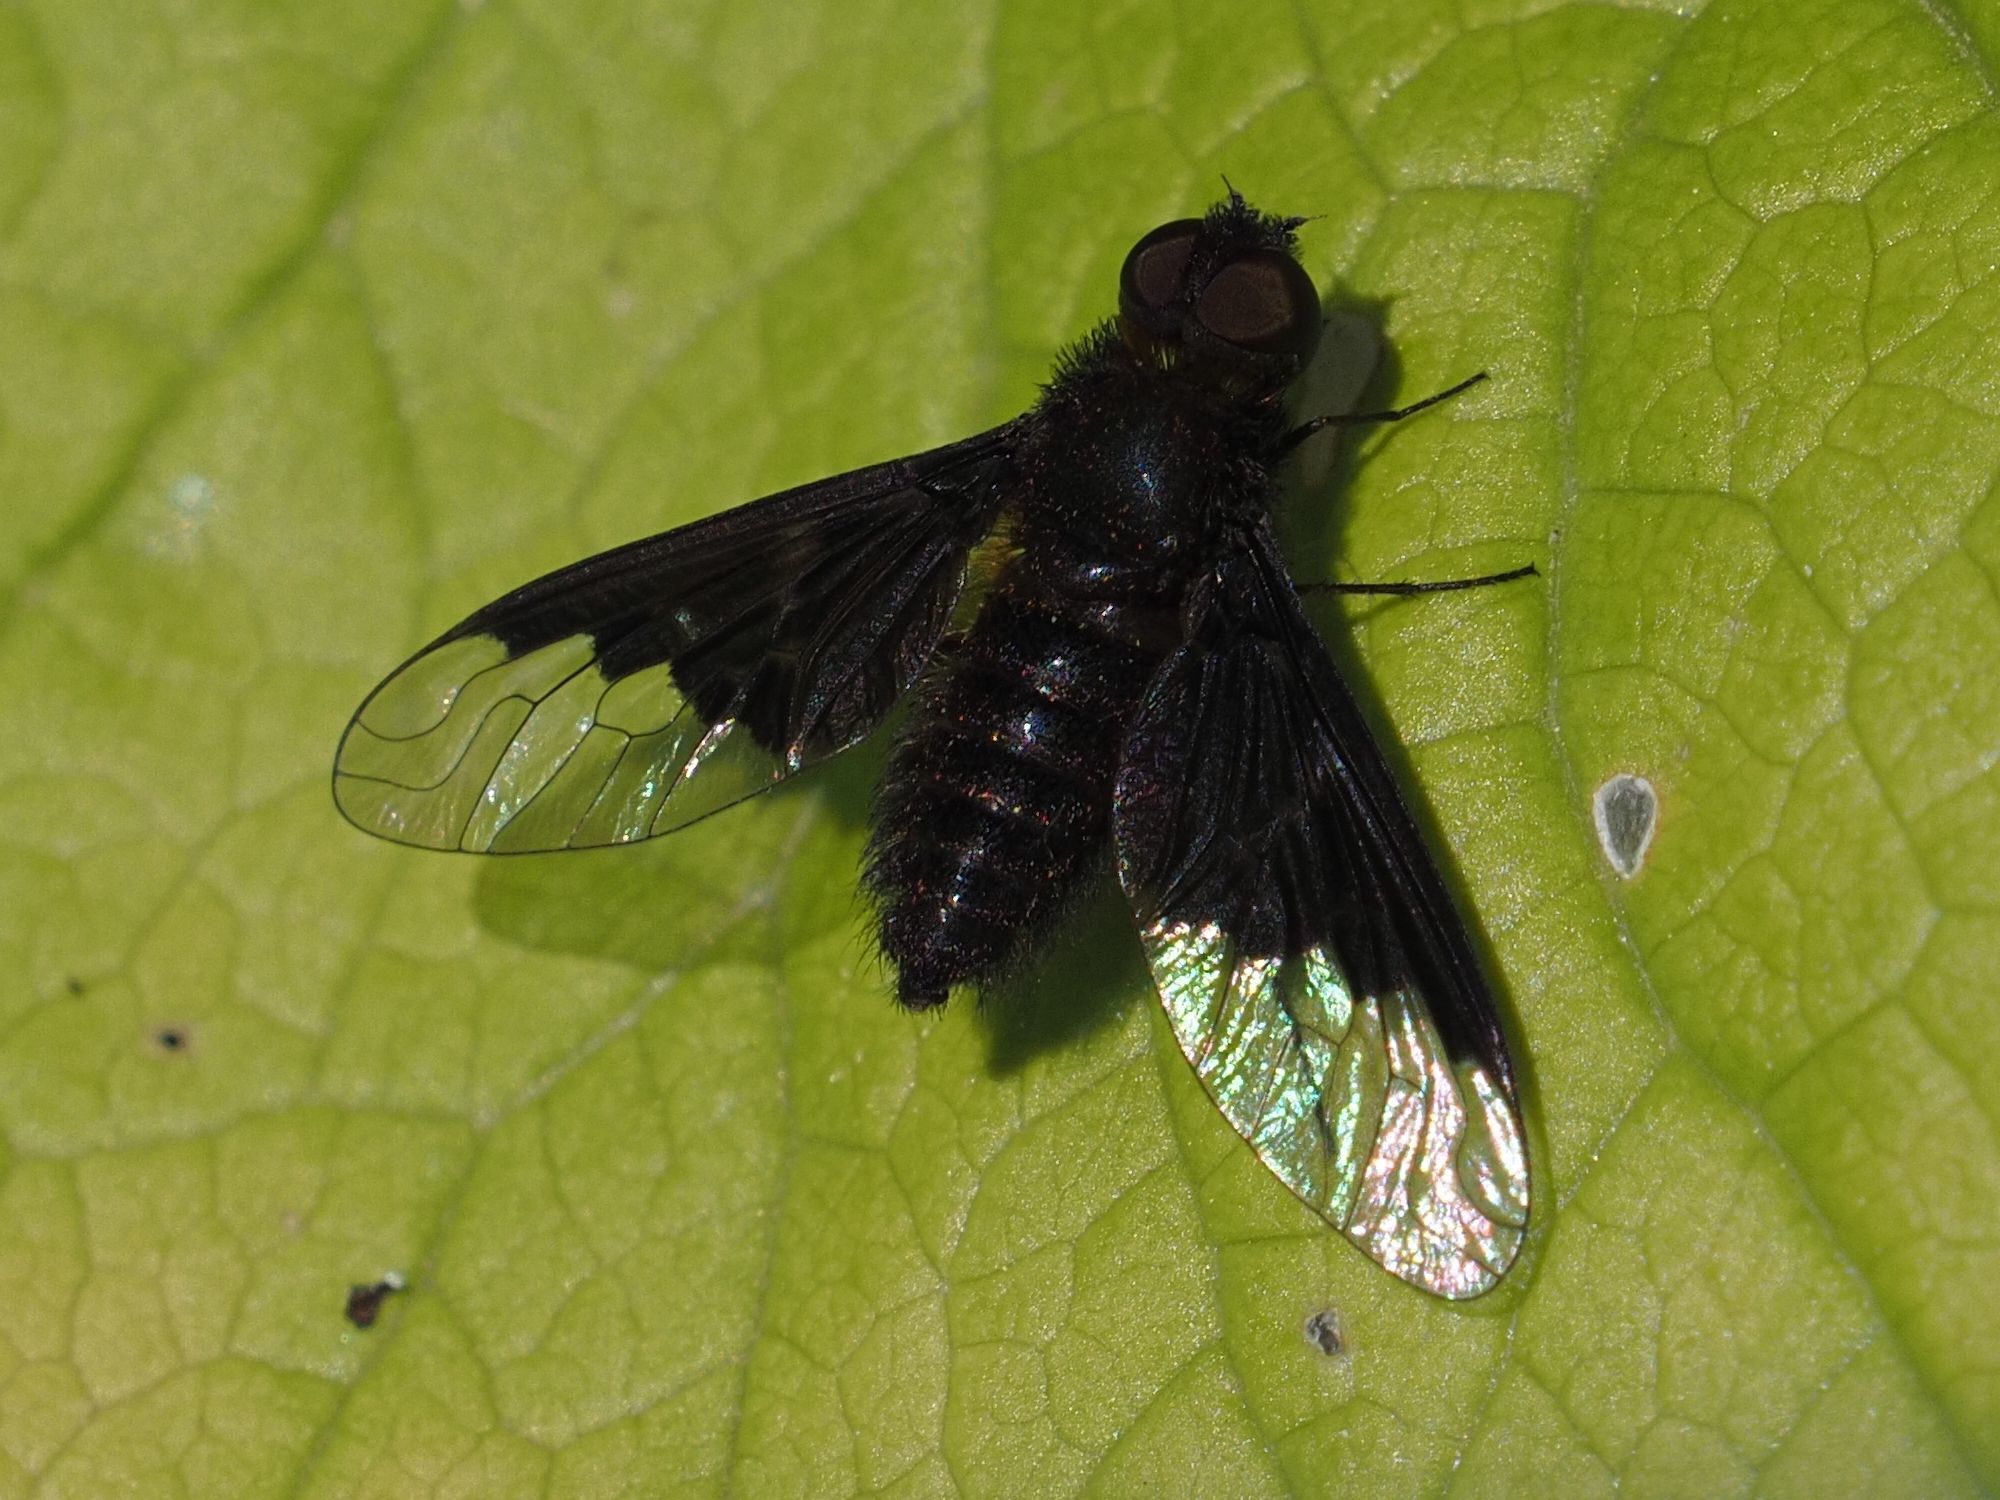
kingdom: Animalia
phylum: Arthropoda
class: Insecta
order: Diptera
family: Bombyliidae
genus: Hemipenthes
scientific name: Hemipenthes morio
